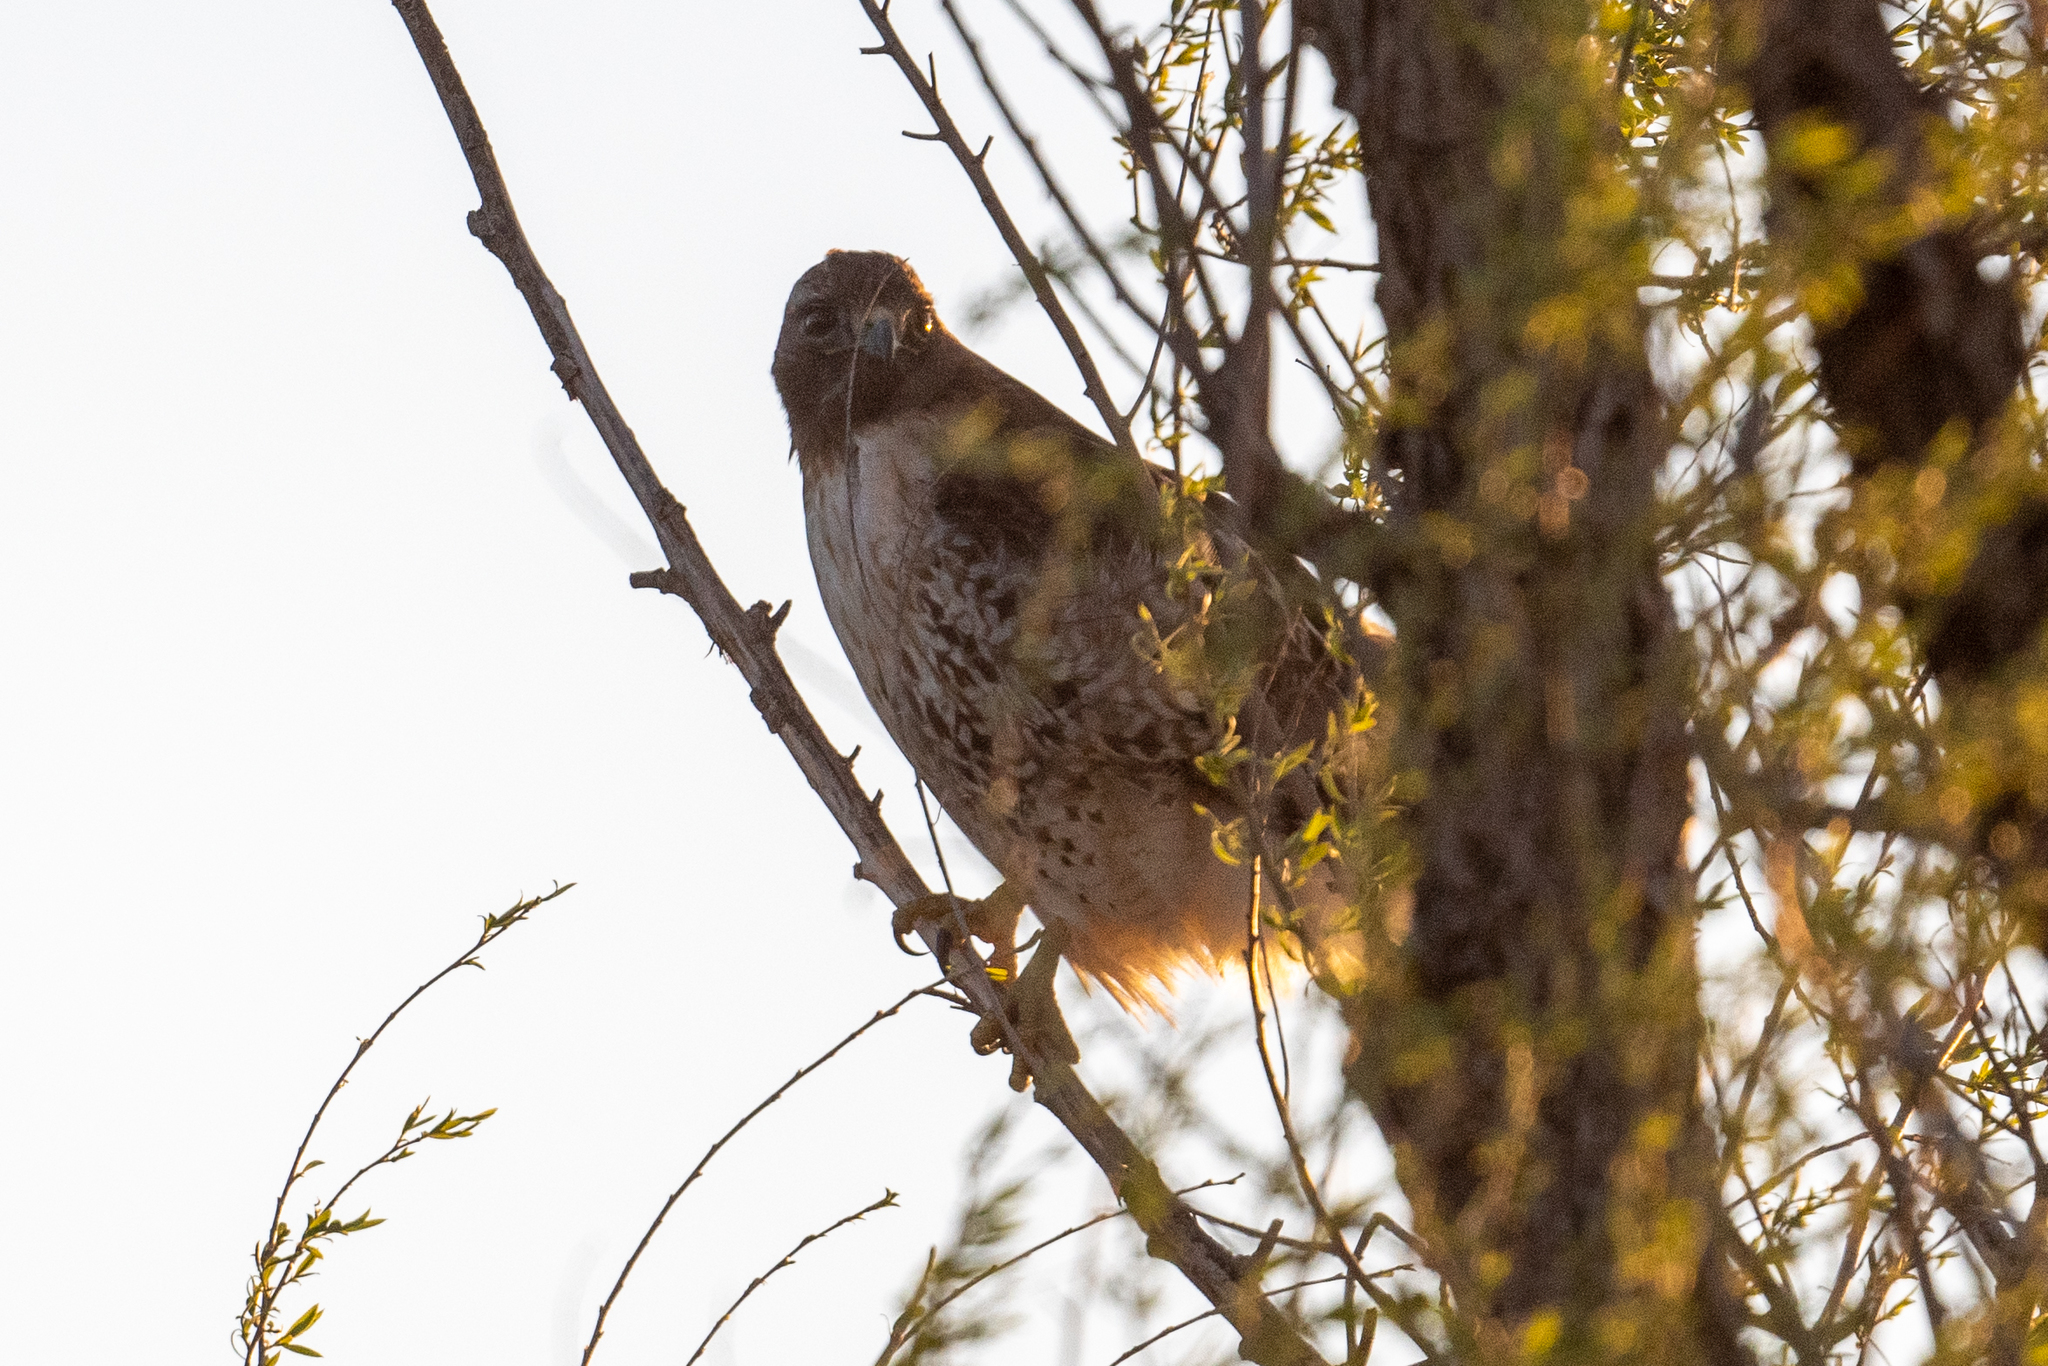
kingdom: Animalia
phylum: Chordata
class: Aves
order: Accipitriformes
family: Accipitridae
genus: Buteo
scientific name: Buteo jamaicensis
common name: Red-tailed hawk
